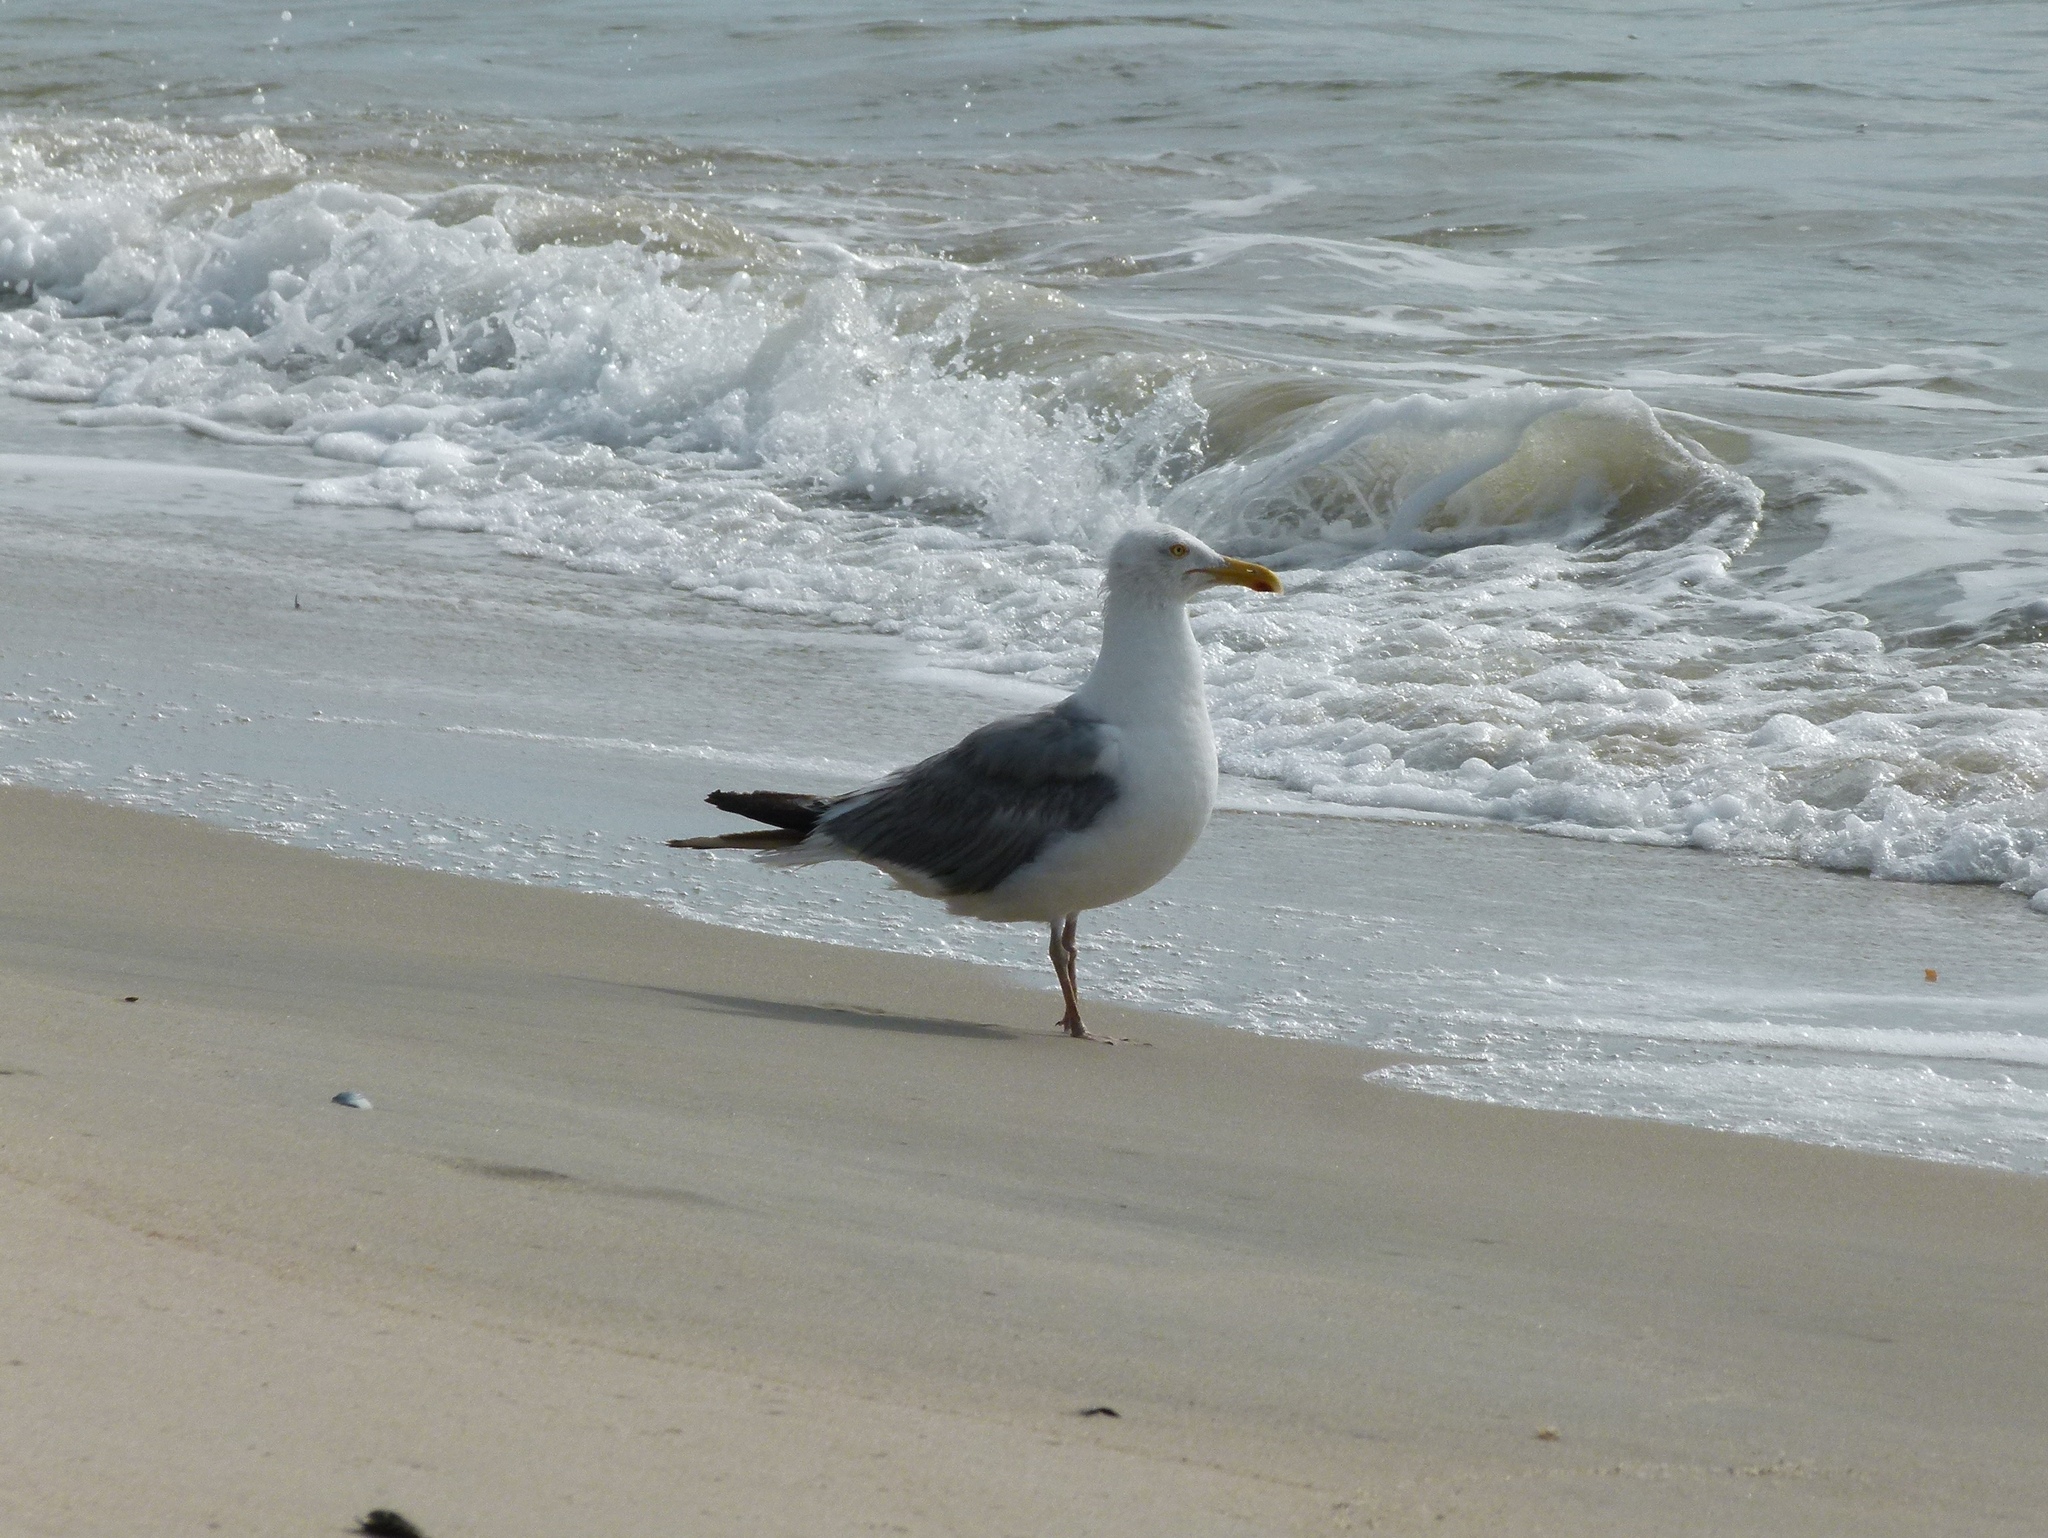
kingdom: Animalia
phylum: Chordata
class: Aves
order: Charadriiformes
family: Laridae
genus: Larus
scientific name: Larus argentatus
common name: Herring gull
